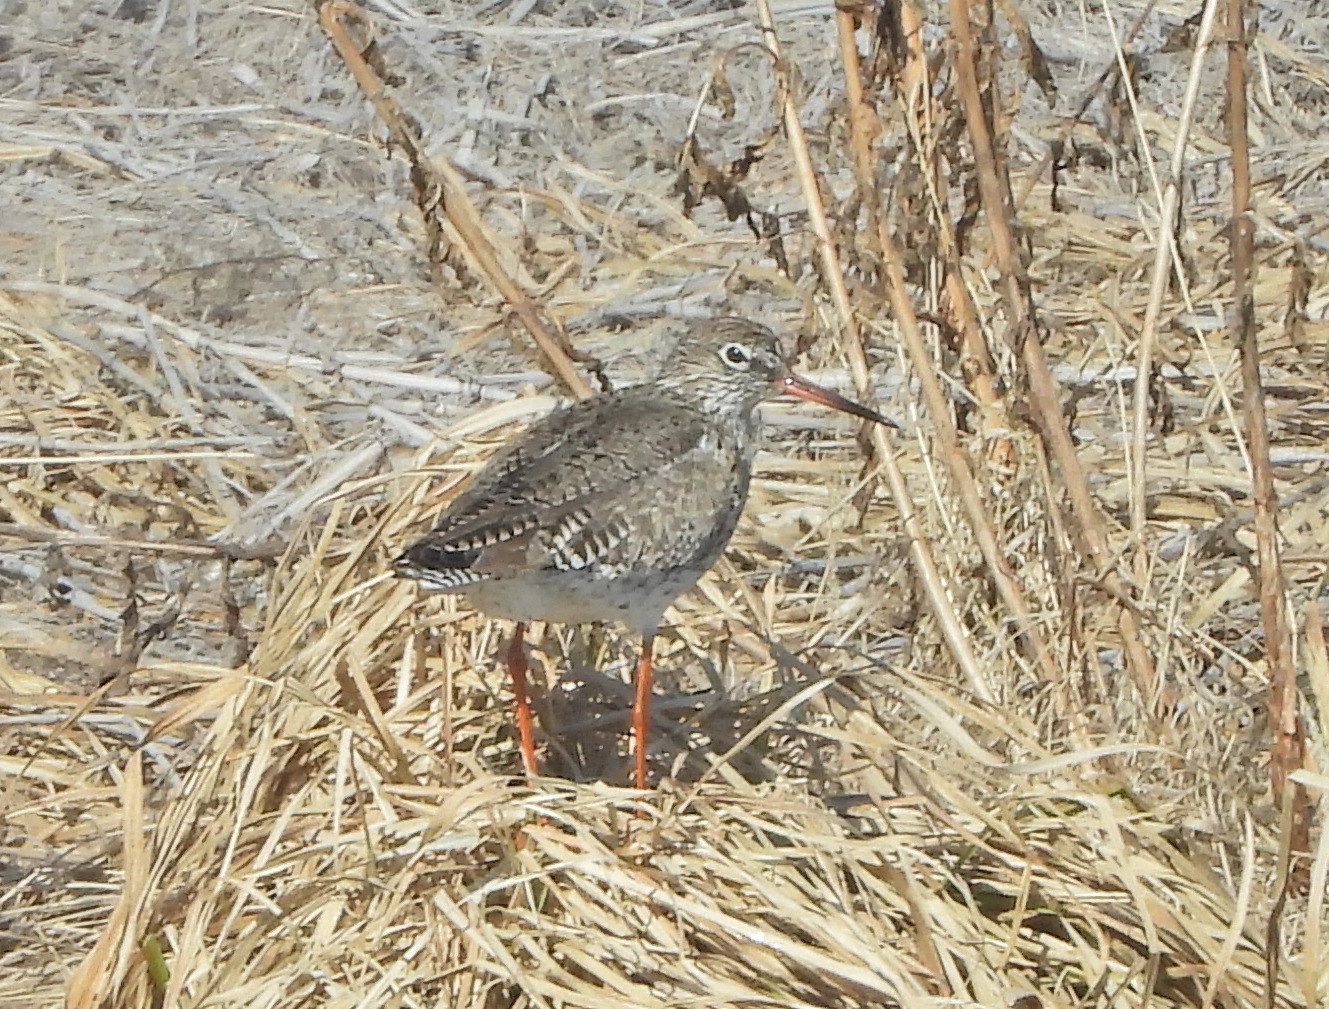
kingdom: Animalia
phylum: Chordata
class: Aves
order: Charadriiformes
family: Scolopacidae
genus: Tringa
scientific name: Tringa totanus
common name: Common redshank
